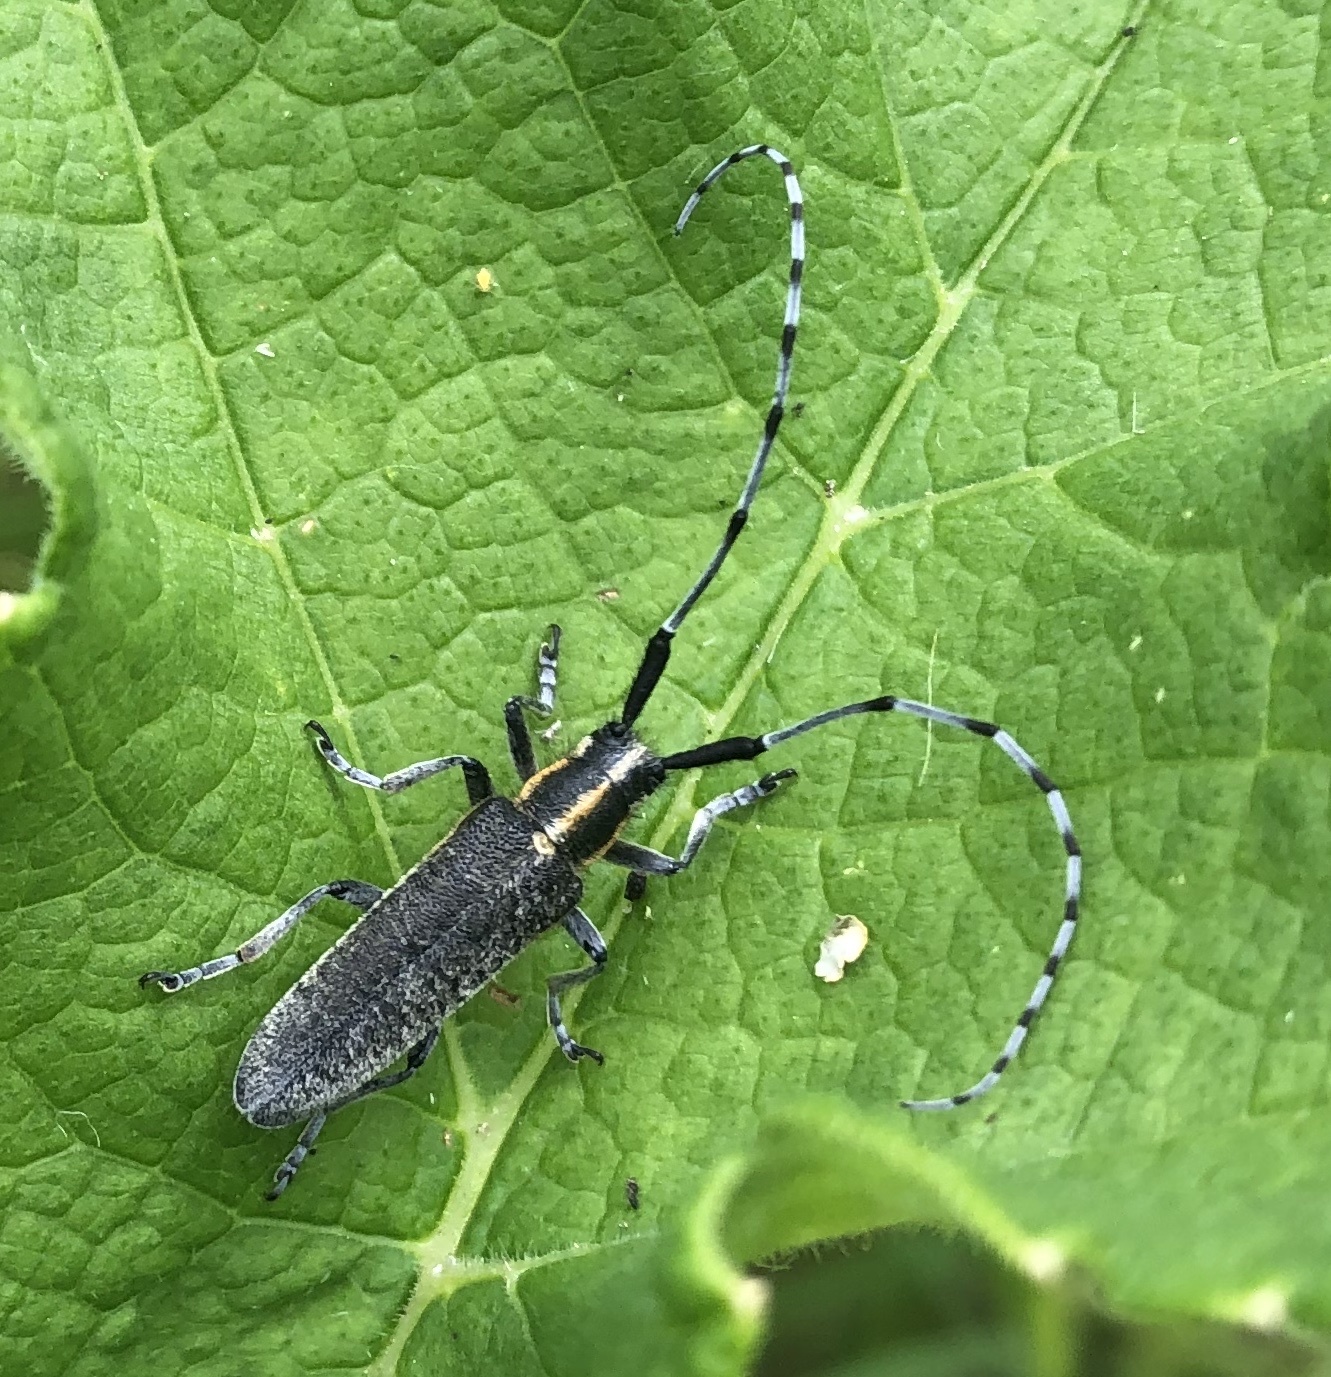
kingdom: Animalia
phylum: Arthropoda
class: Insecta
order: Coleoptera
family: Cerambycidae
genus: Agapanthia
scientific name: Agapanthia villosoviridescens
